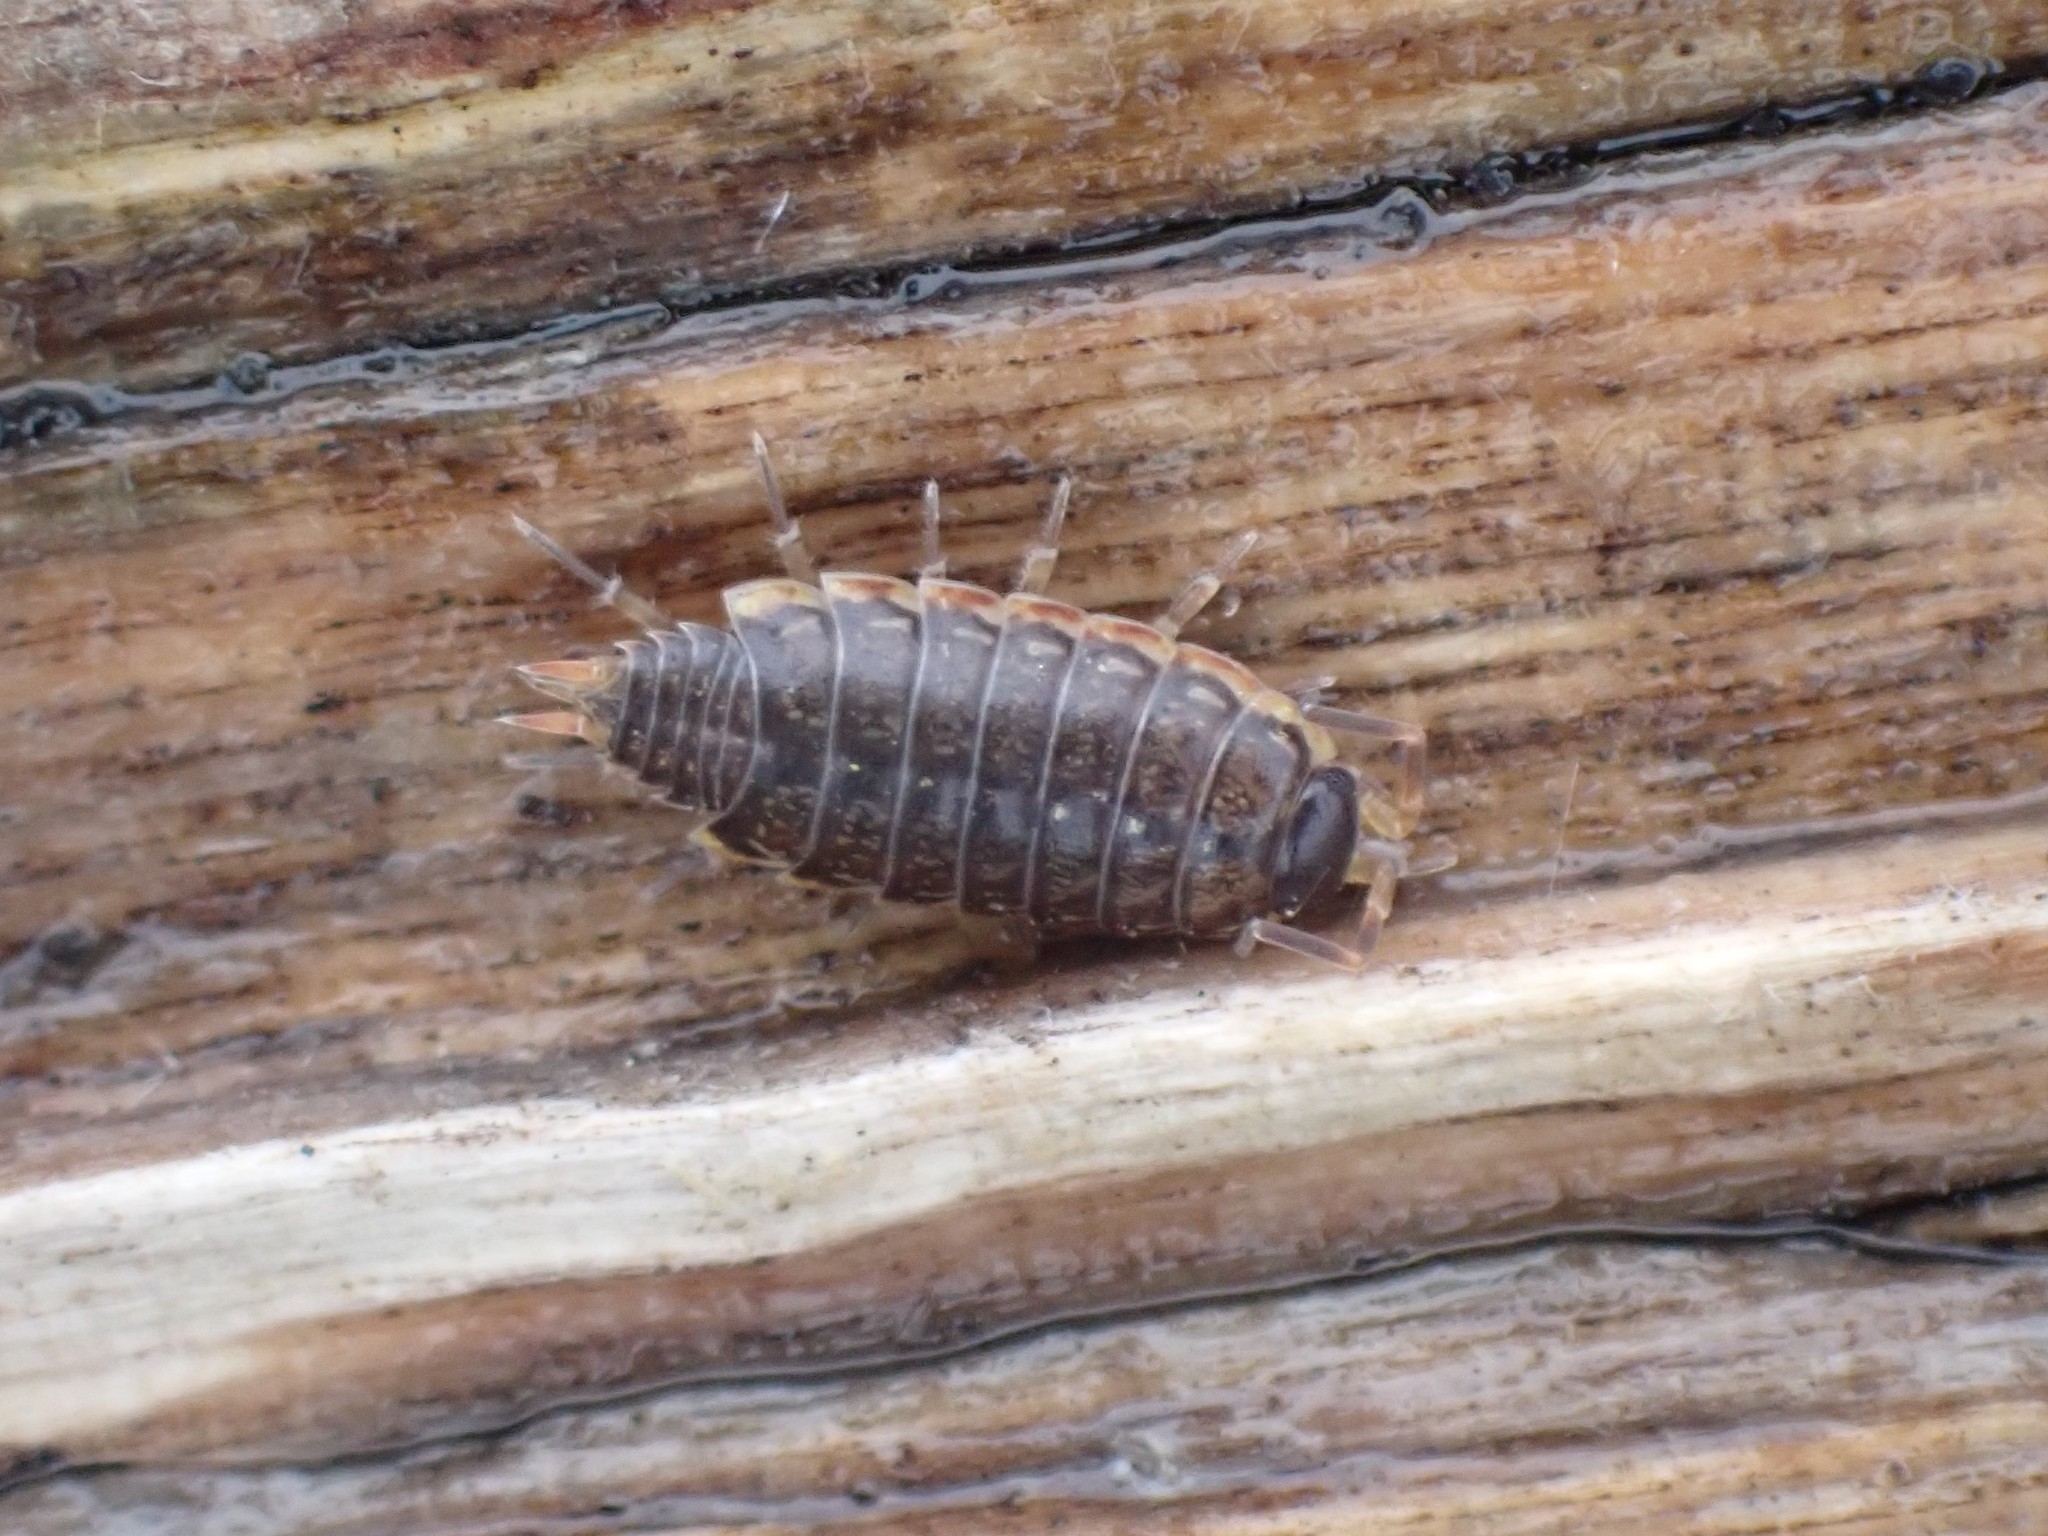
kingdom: Animalia
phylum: Arthropoda
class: Malacostraca
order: Isopoda
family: Philosciidae
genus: Philoscia
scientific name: Philoscia muscorum
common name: Common striped woodlouse
